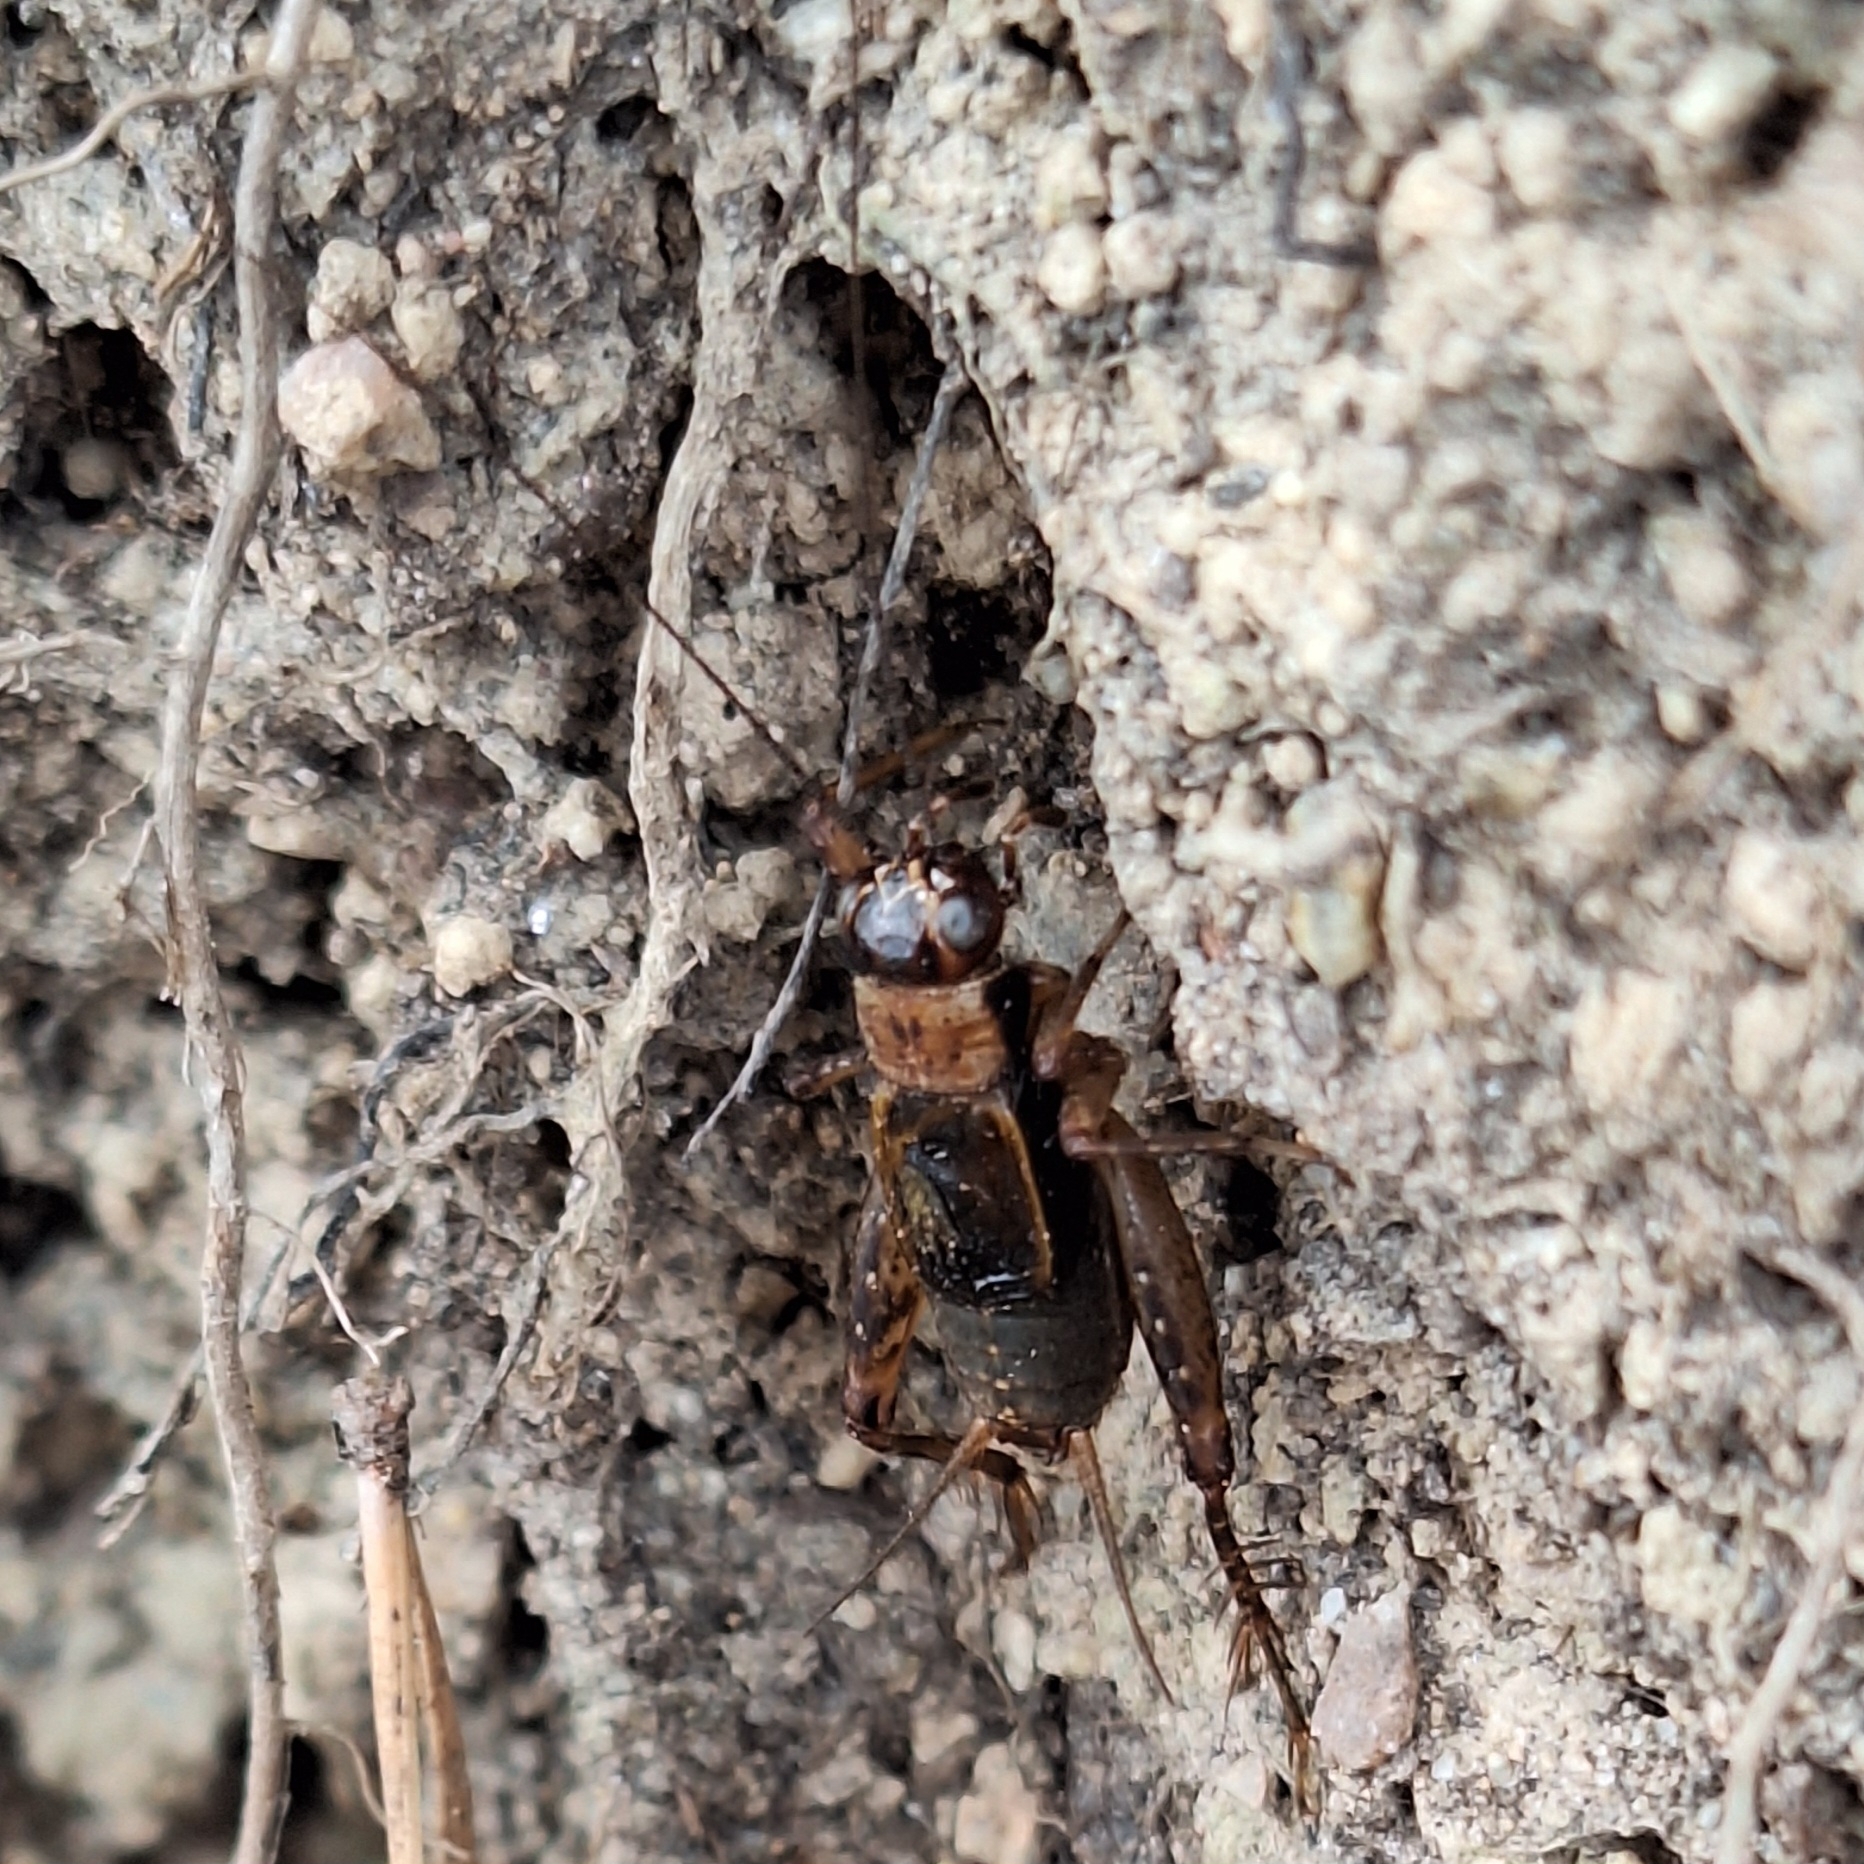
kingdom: Animalia
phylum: Arthropoda
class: Insecta
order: Orthoptera
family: Trigonidiidae
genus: Nemobius
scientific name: Nemobius sylvestris
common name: Wood-cricket
